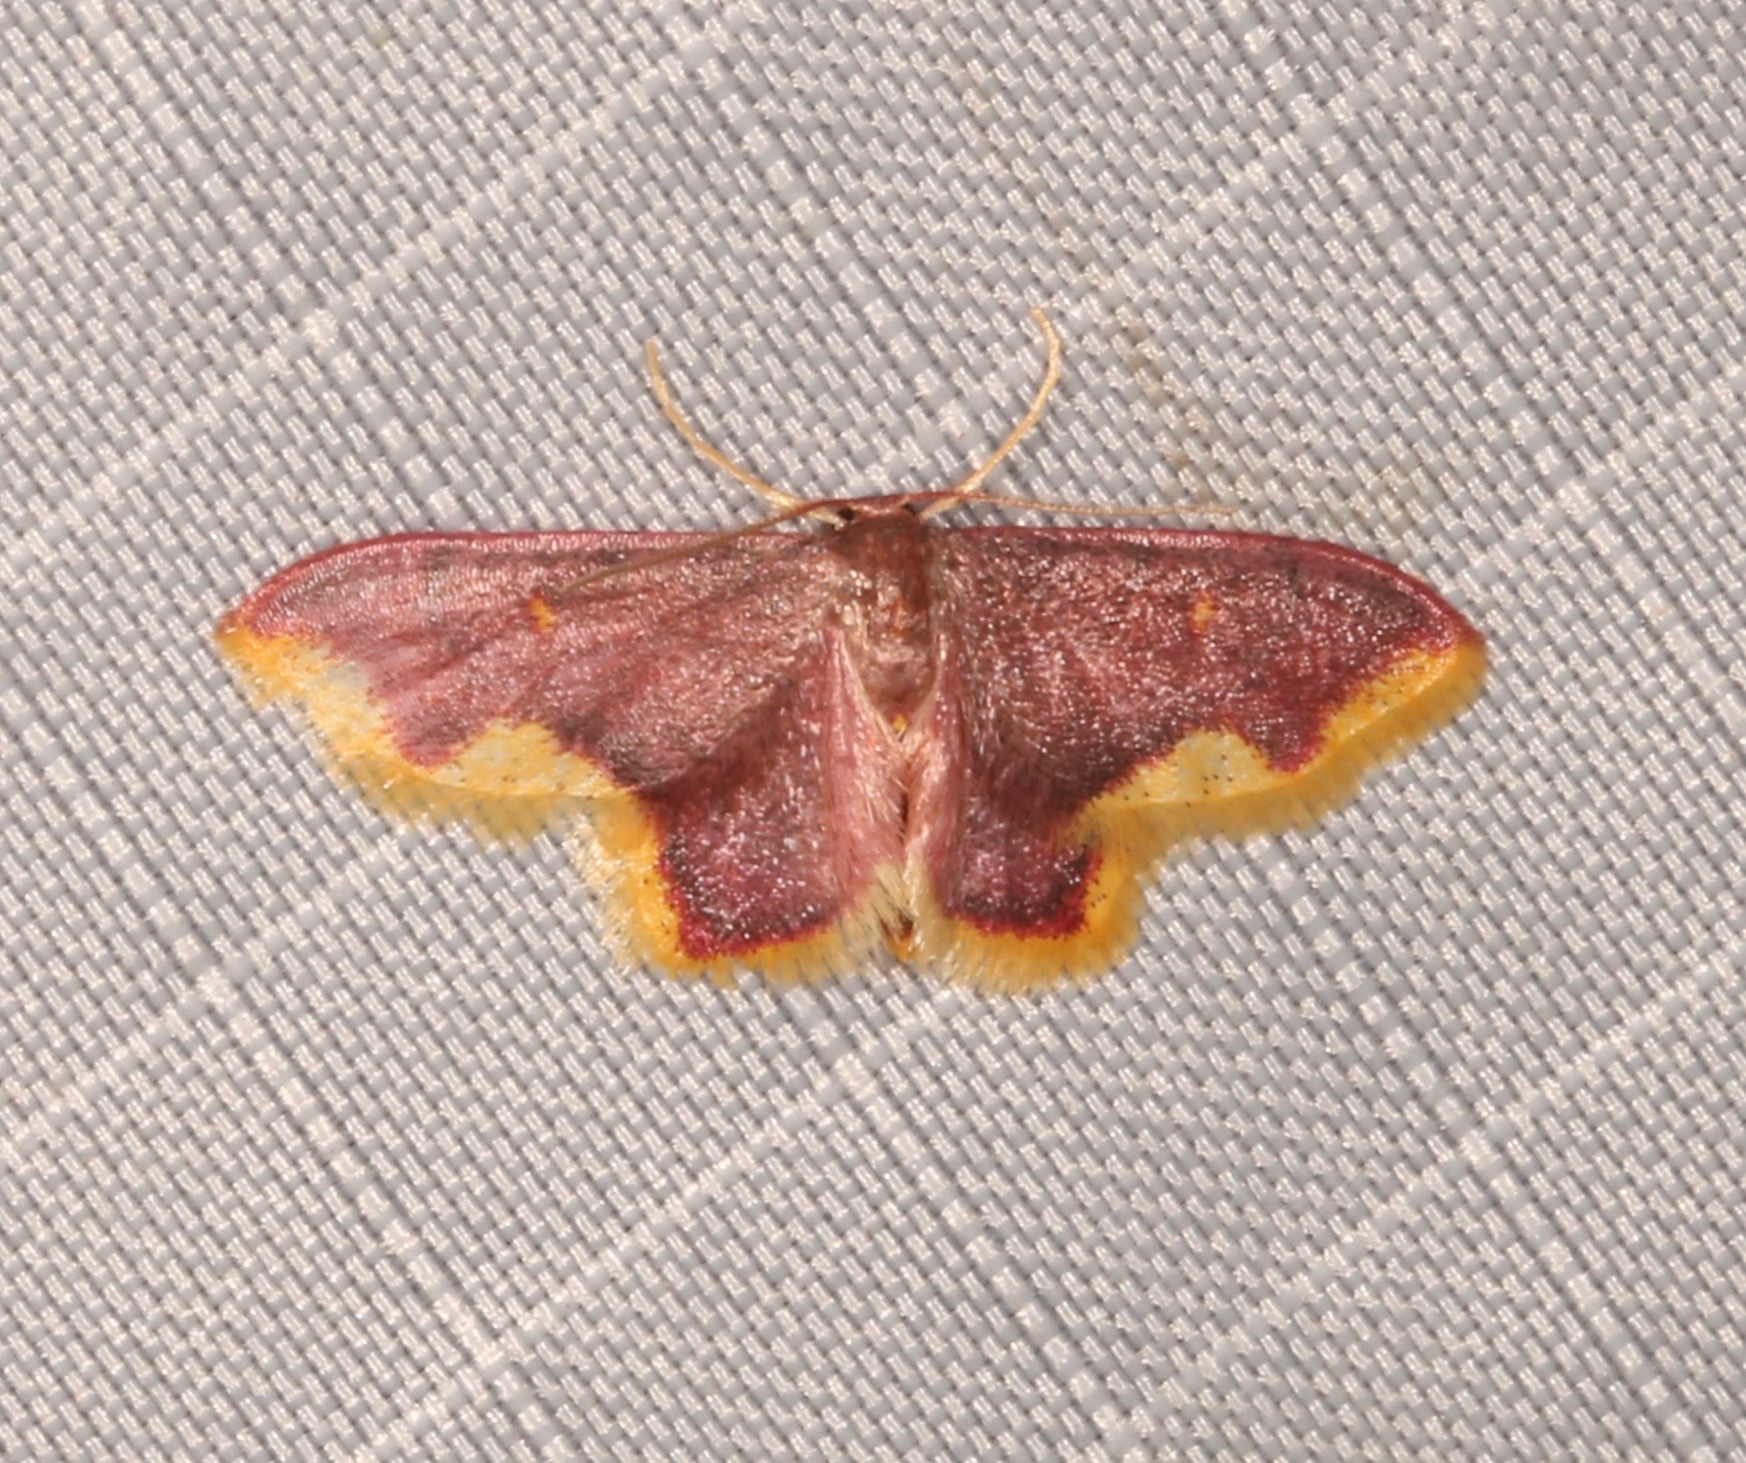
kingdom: Animalia
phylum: Arthropoda
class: Insecta
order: Lepidoptera
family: Geometridae
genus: Lophosis
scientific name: Lophosis labeculata
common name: Stained lophosis moth
